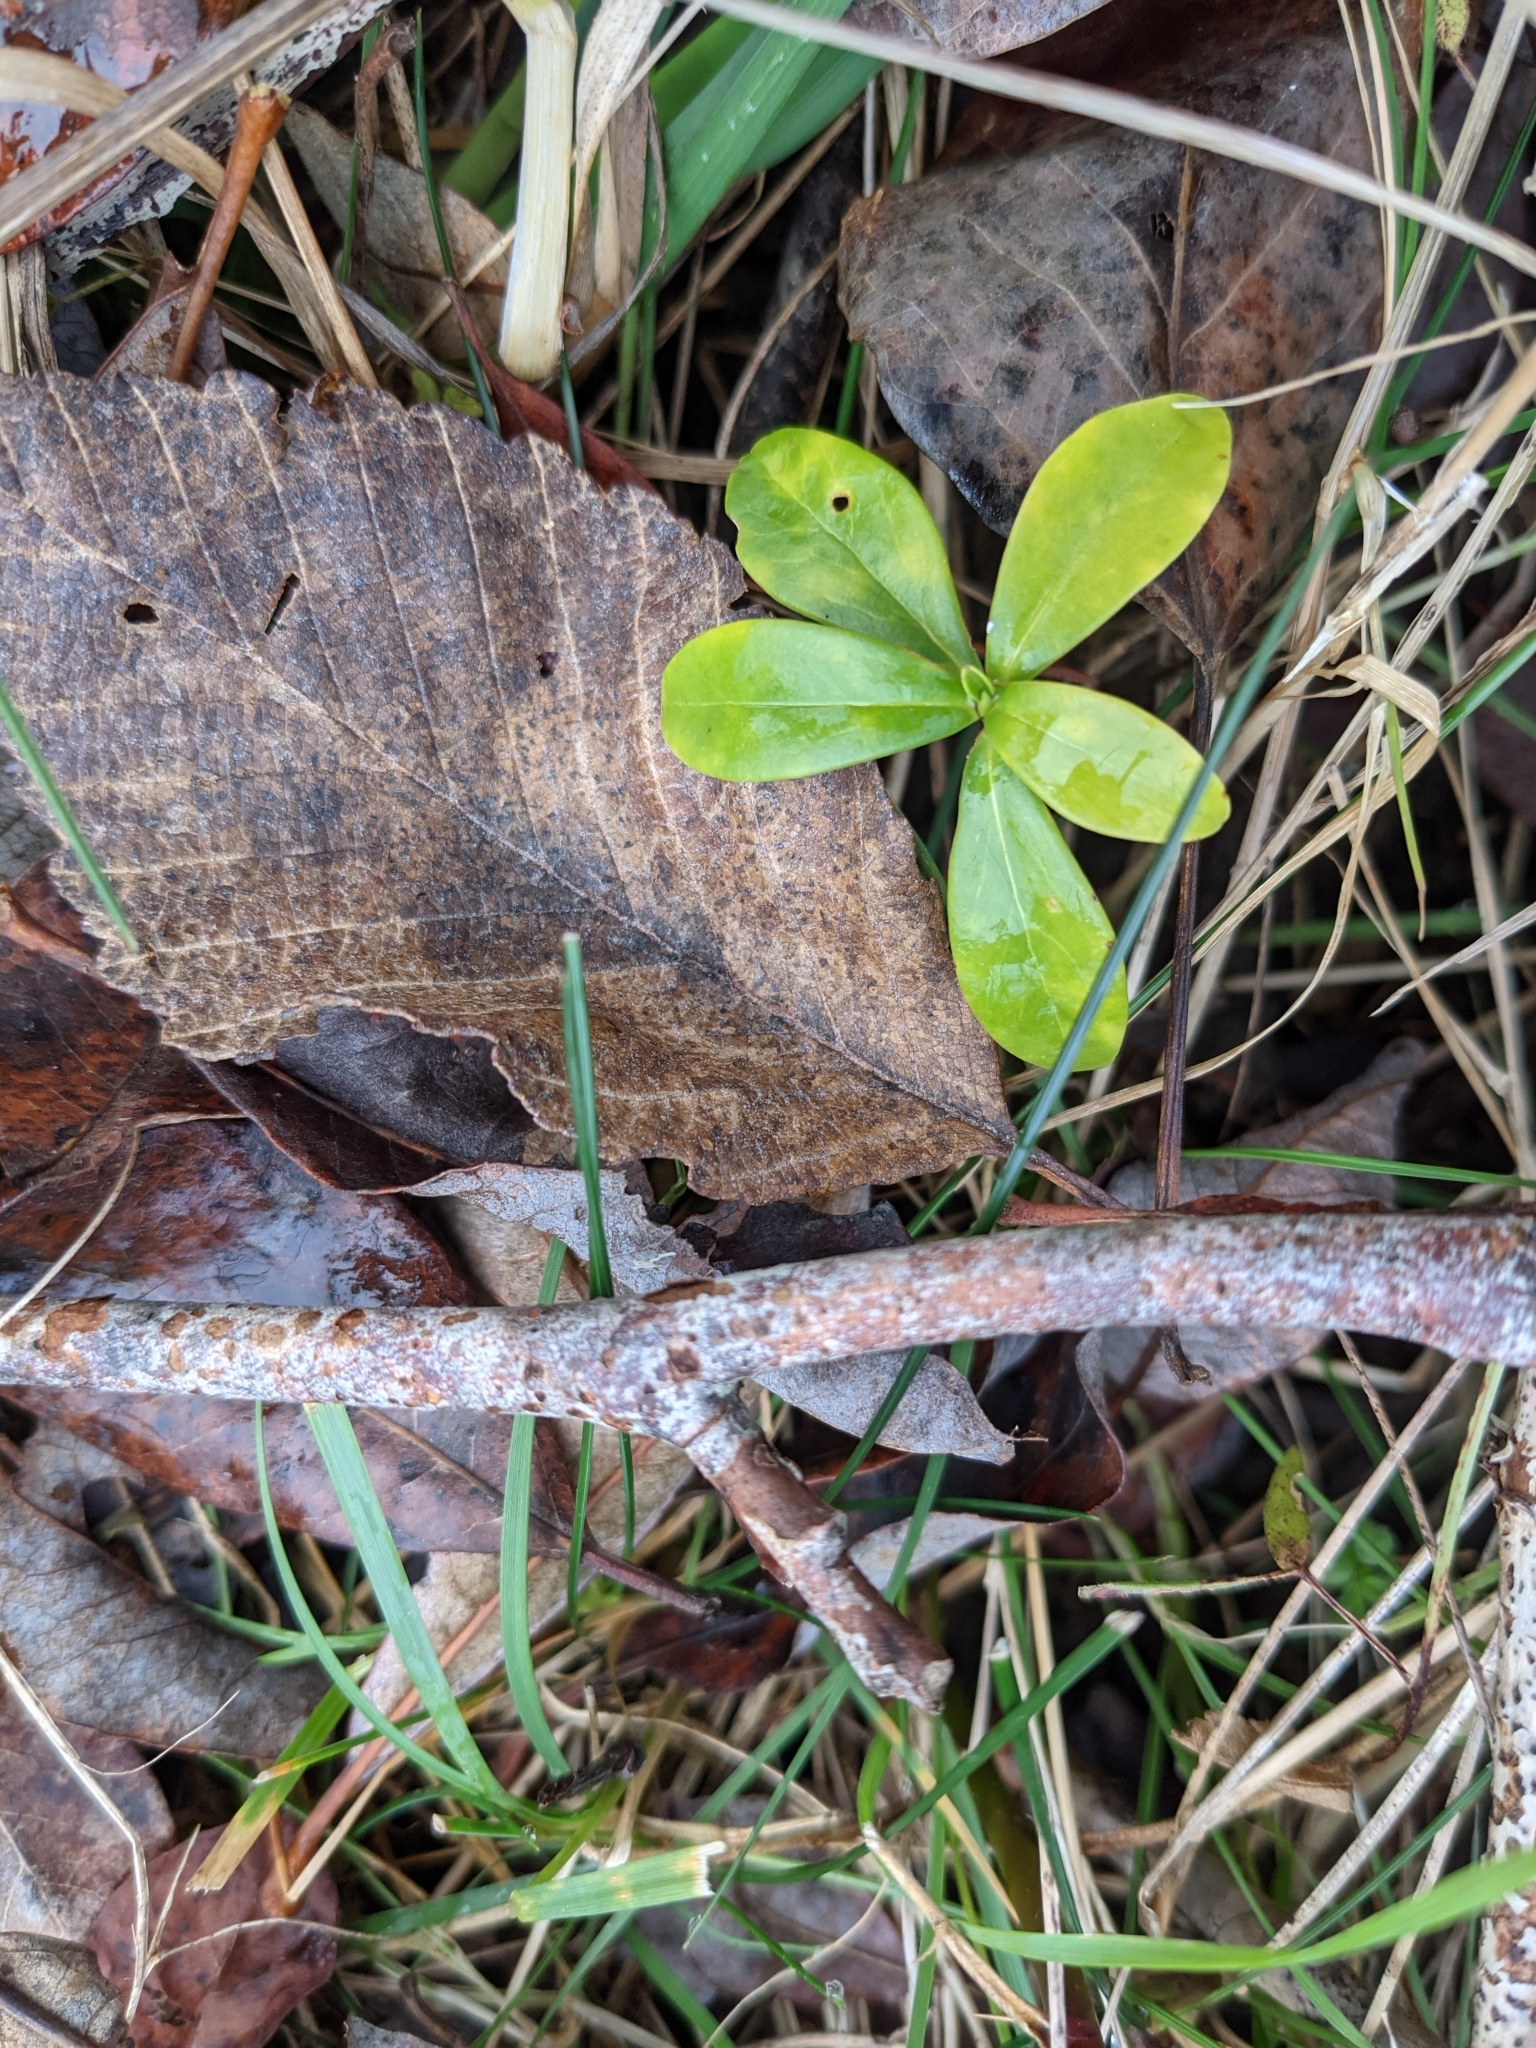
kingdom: Plantae
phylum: Tracheophyta
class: Magnoliopsida
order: Malvales
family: Thymelaeaceae
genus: Daphne
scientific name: Daphne laureola
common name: Spurge-laurel
